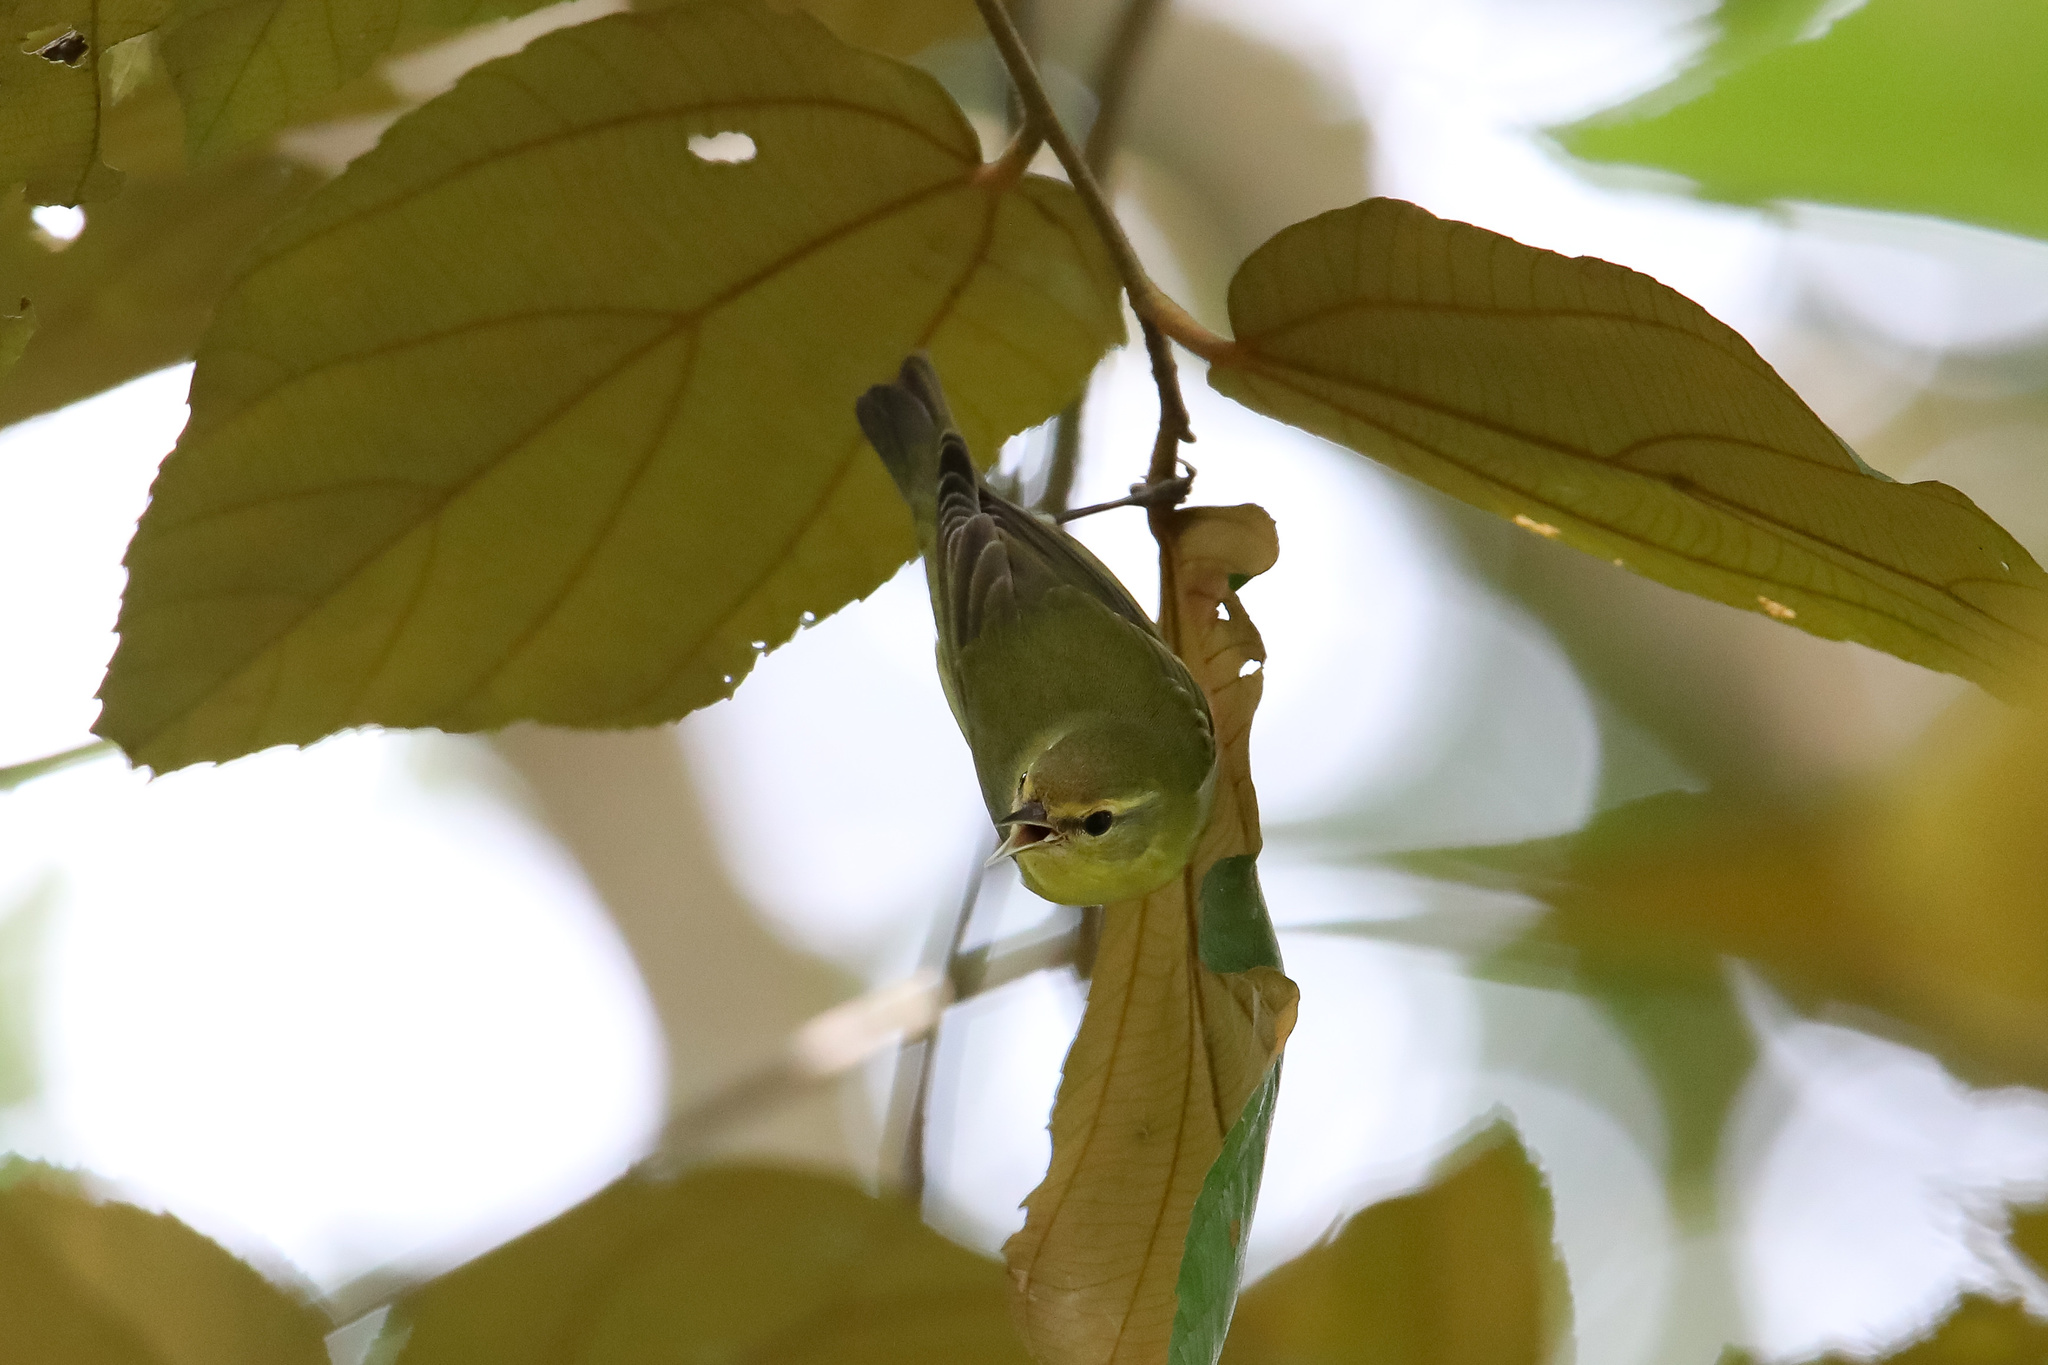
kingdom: Animalia
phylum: Chordata
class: Aves
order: Passeriformes
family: Parulidae
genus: Leiothlypis
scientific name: Leiothlypis peregrina
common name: Tennessee warbler
